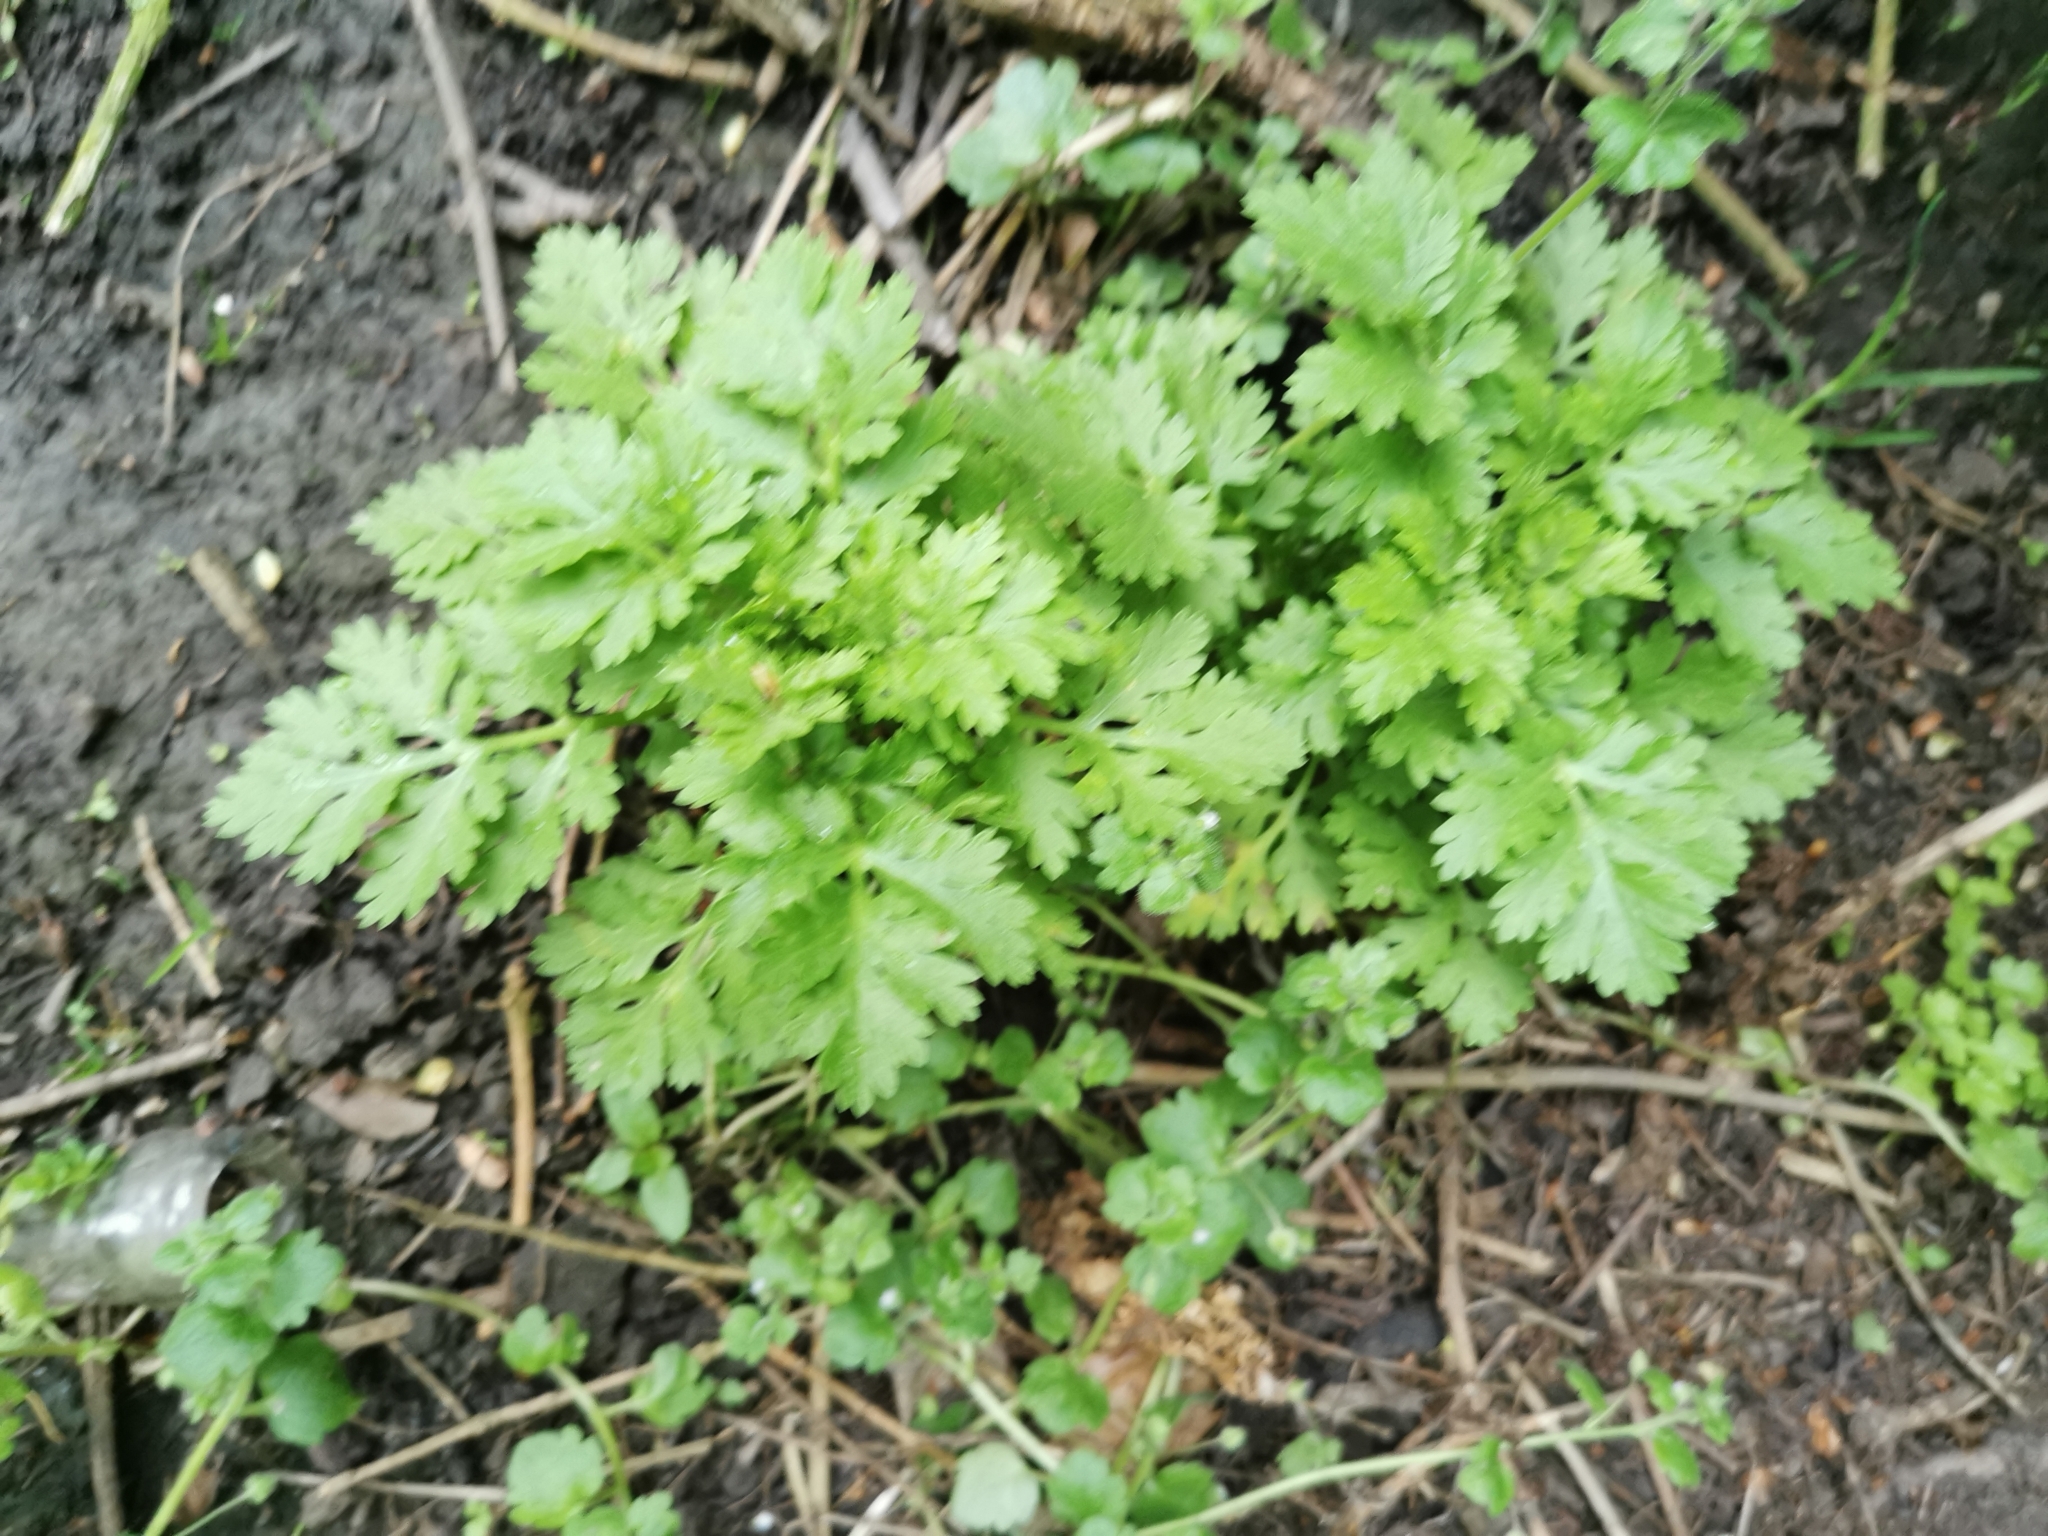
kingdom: Plantae
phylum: Tracheophyta
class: Magnoliopsida
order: Asterales
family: Asteraceae
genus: Tanacetum
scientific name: Tanacetum parthenium
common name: Feverfew
